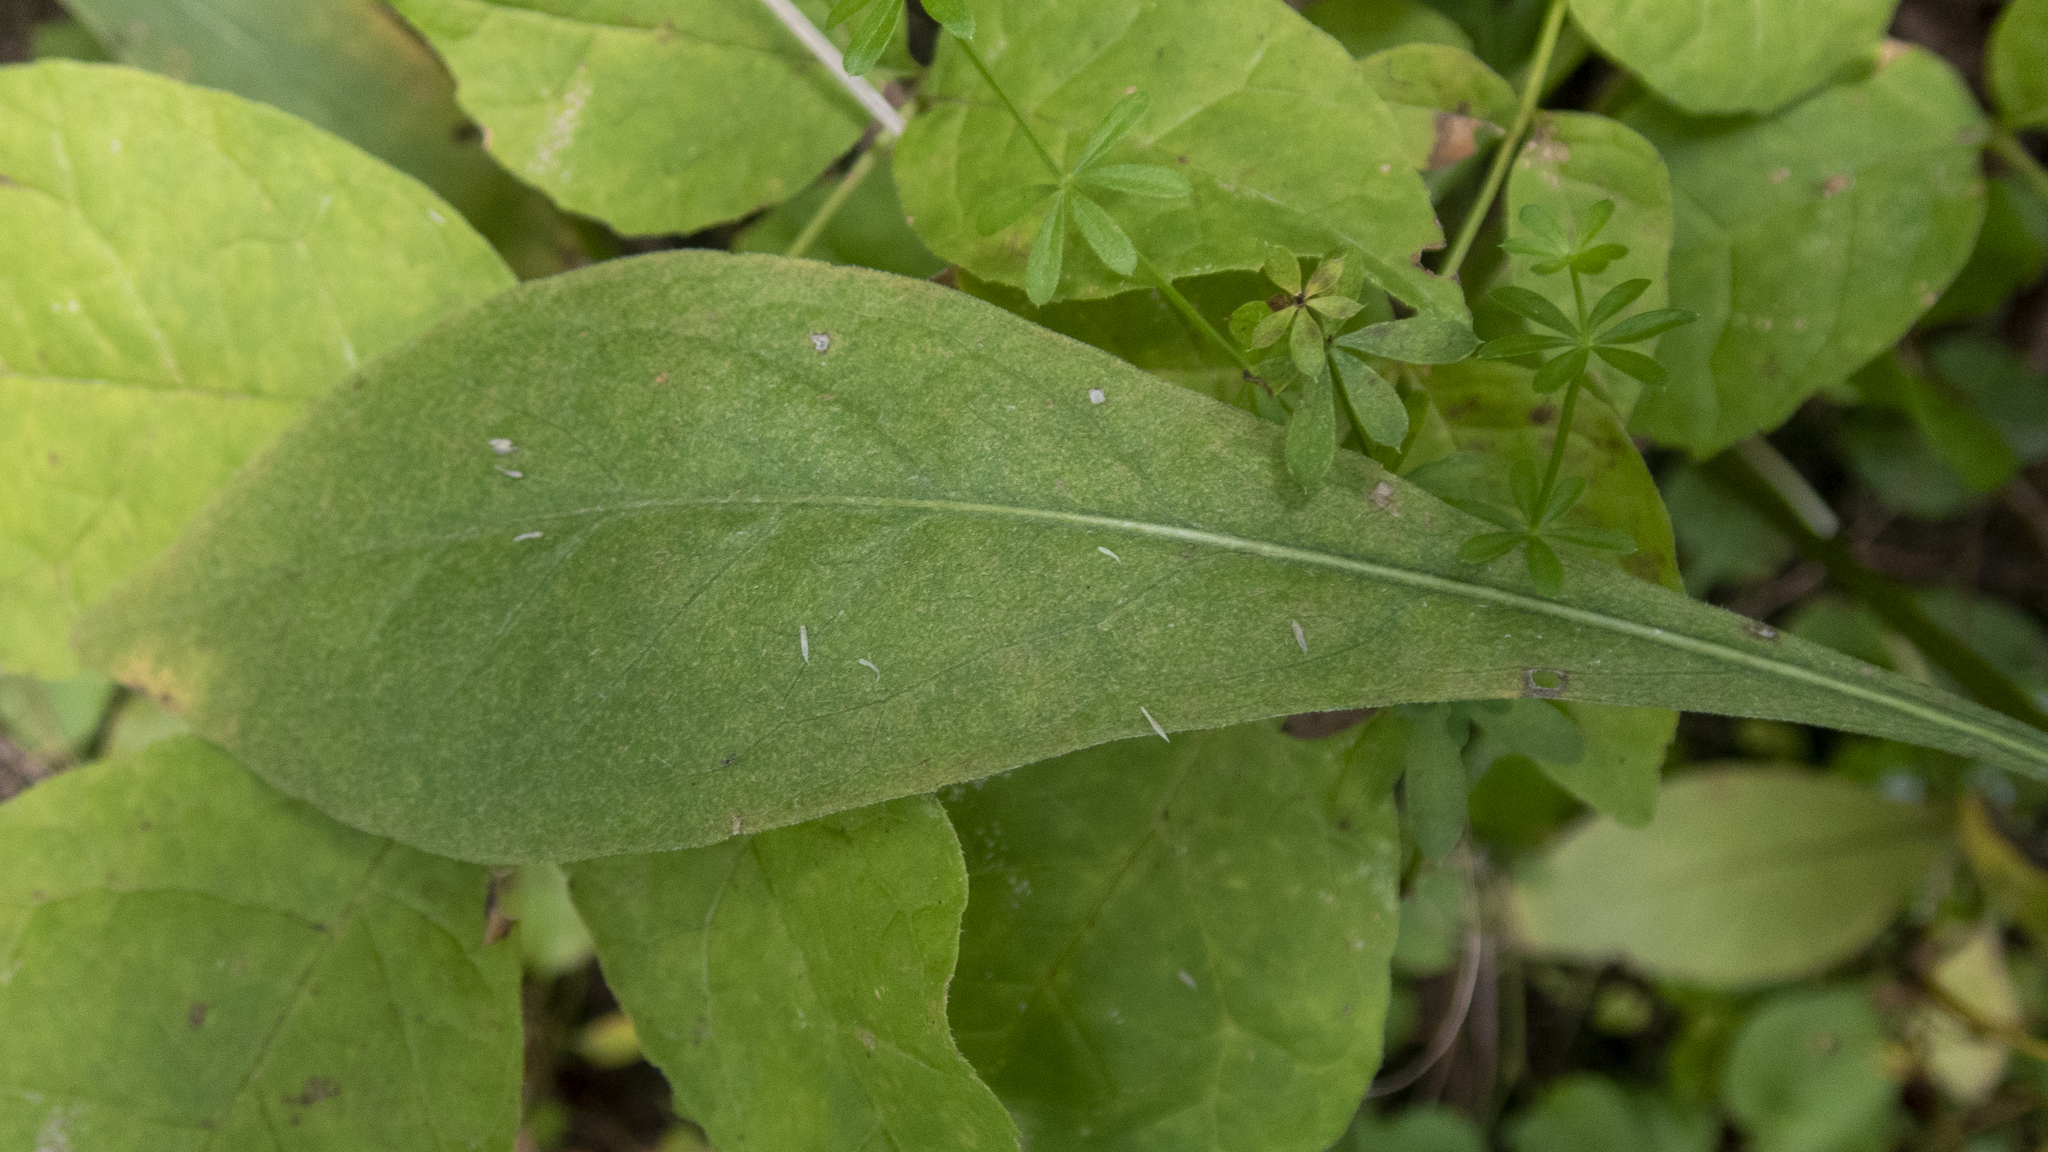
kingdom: Plantae
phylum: Tracheophyta
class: Magnoliopsida
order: Asterales
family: Asteraceae
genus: Centaurea
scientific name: Centaurea moncktonii
